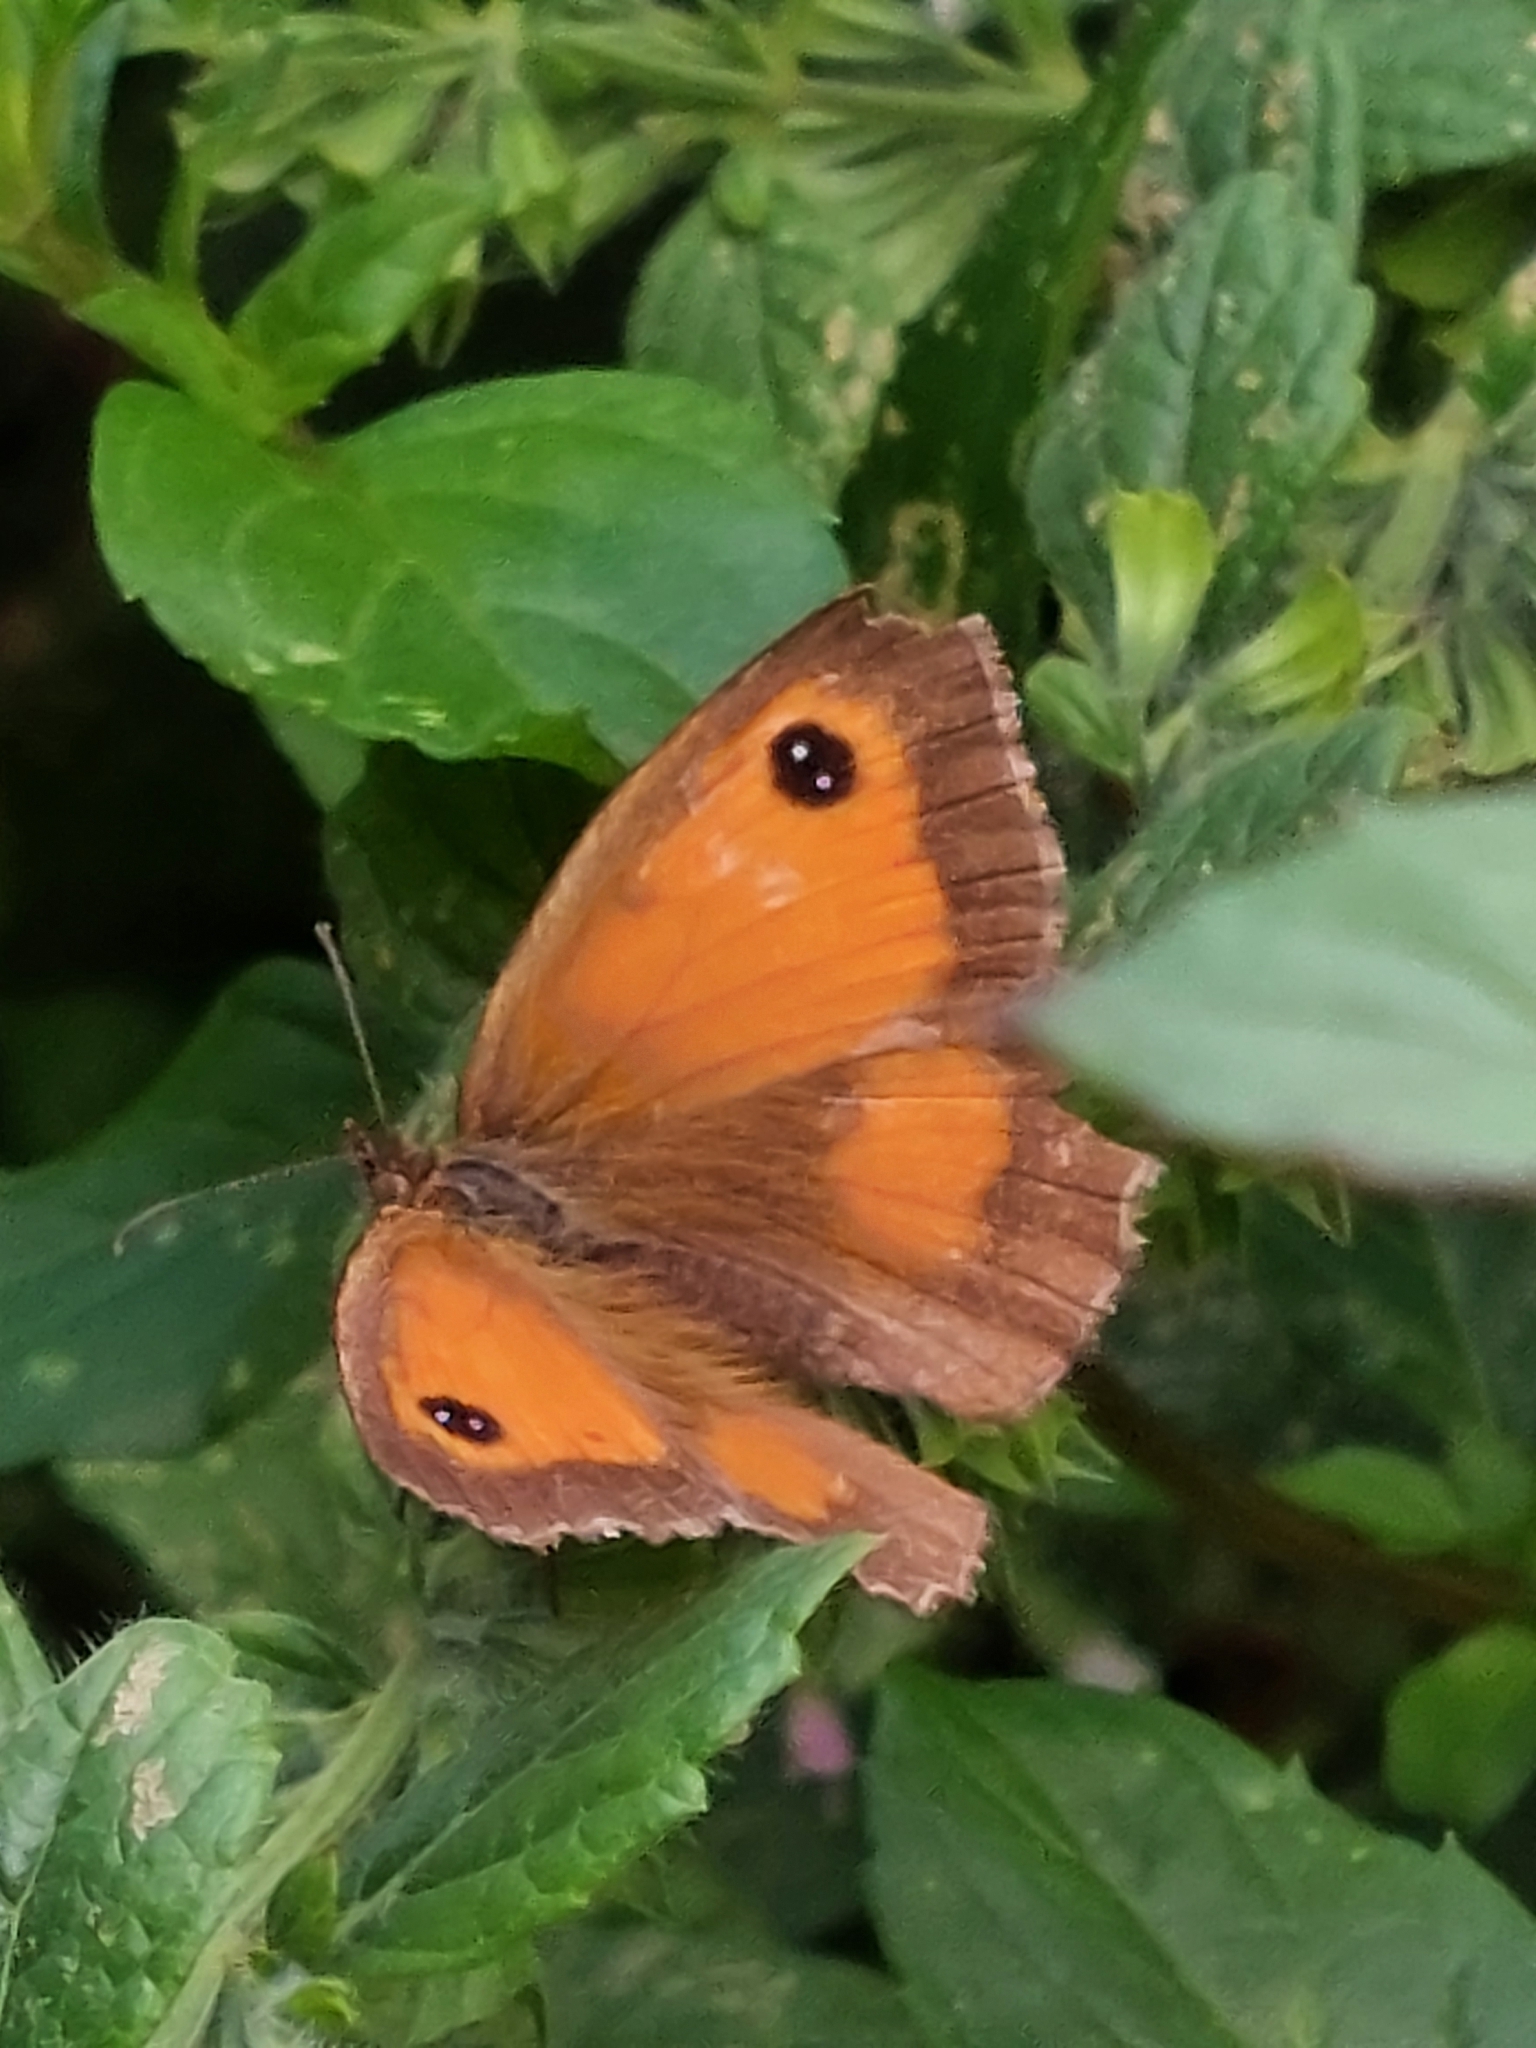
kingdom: Animalia
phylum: Arthropoda
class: Insecta
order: Lepidoptera
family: Nymphalidae
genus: Pyronia
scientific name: Pyronia tithonus
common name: Gatekeeper
